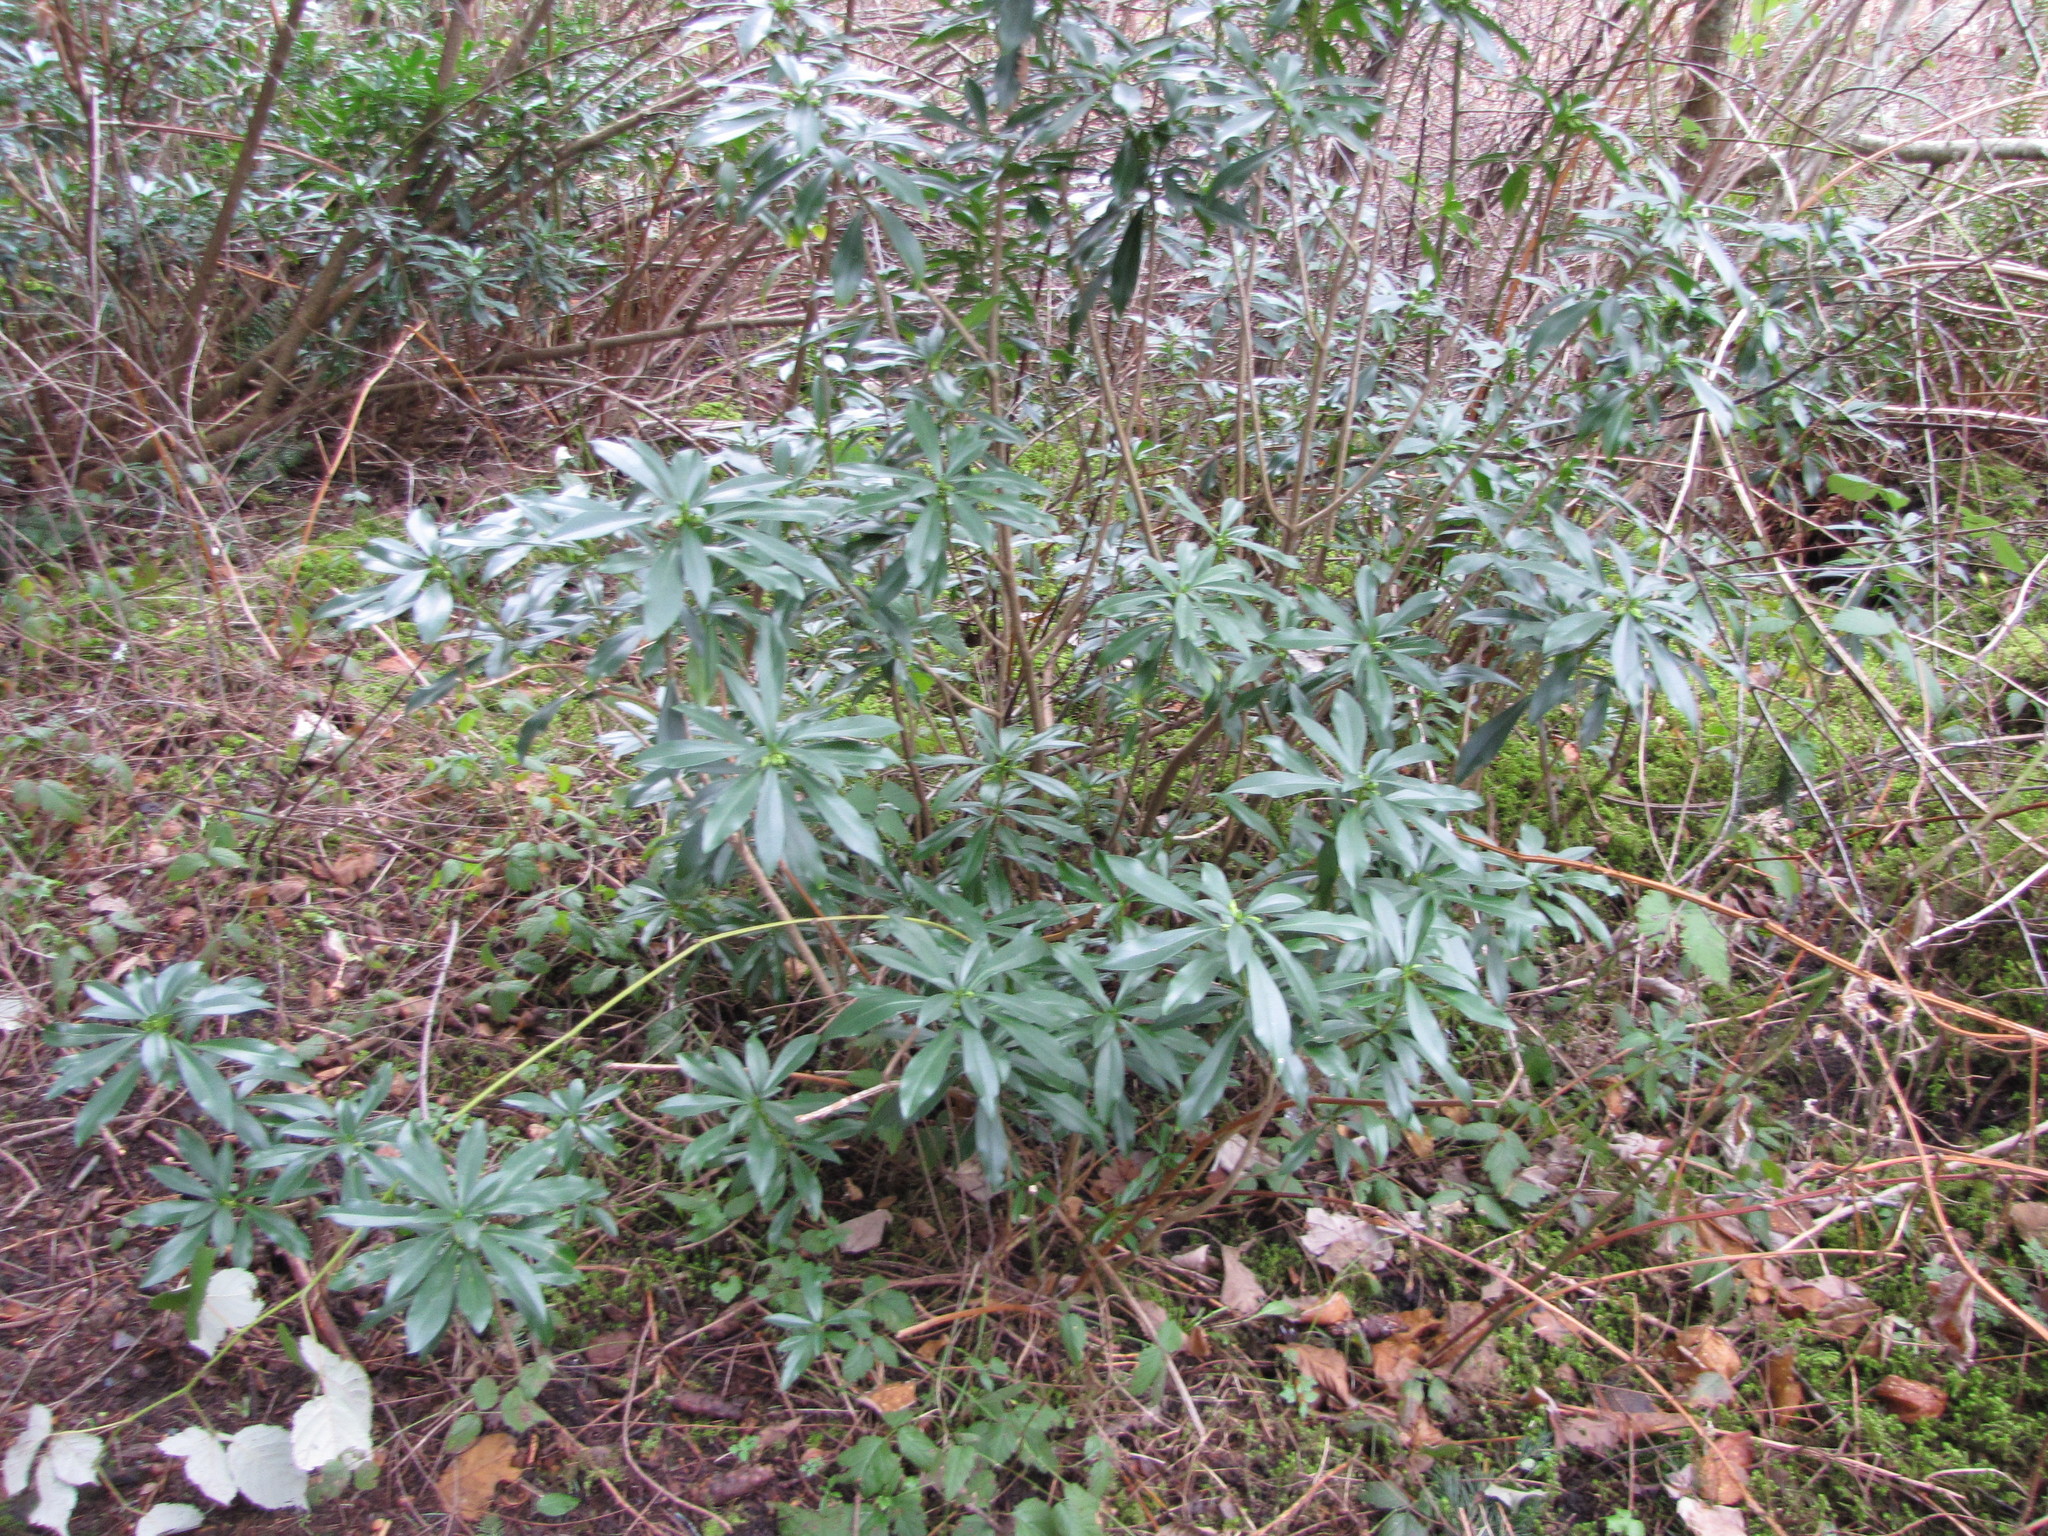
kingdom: Plantae
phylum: Tracheophyta
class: Magnoliopsida
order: Malvales
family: Thymelaeaceae
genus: Daphne
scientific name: Daphne laureola
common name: Spurge-laurel
